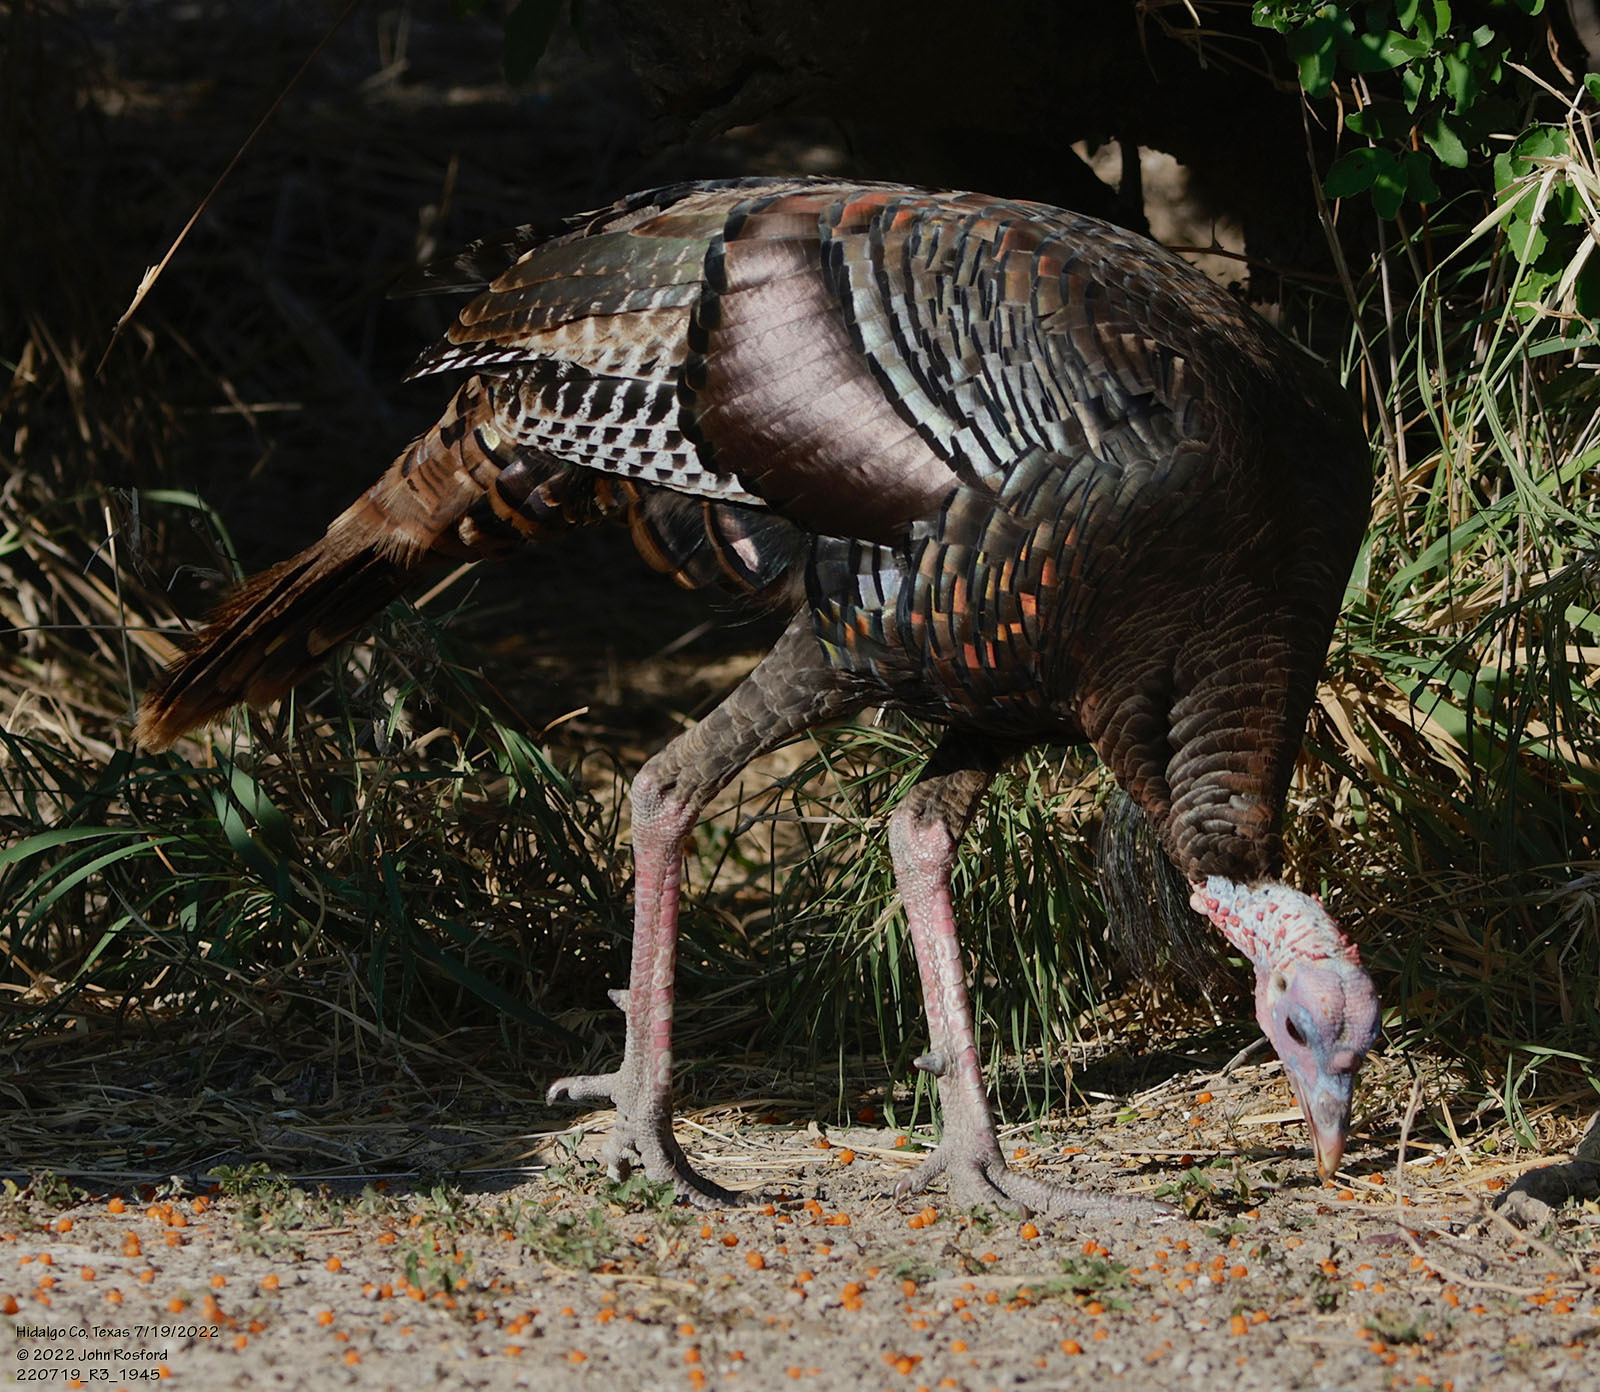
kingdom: Animalia
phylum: Chordata
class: Aves
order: Galliformes
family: Phasianidae
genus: Meleagris
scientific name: Meleagris gallopavo
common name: Wild turkey
